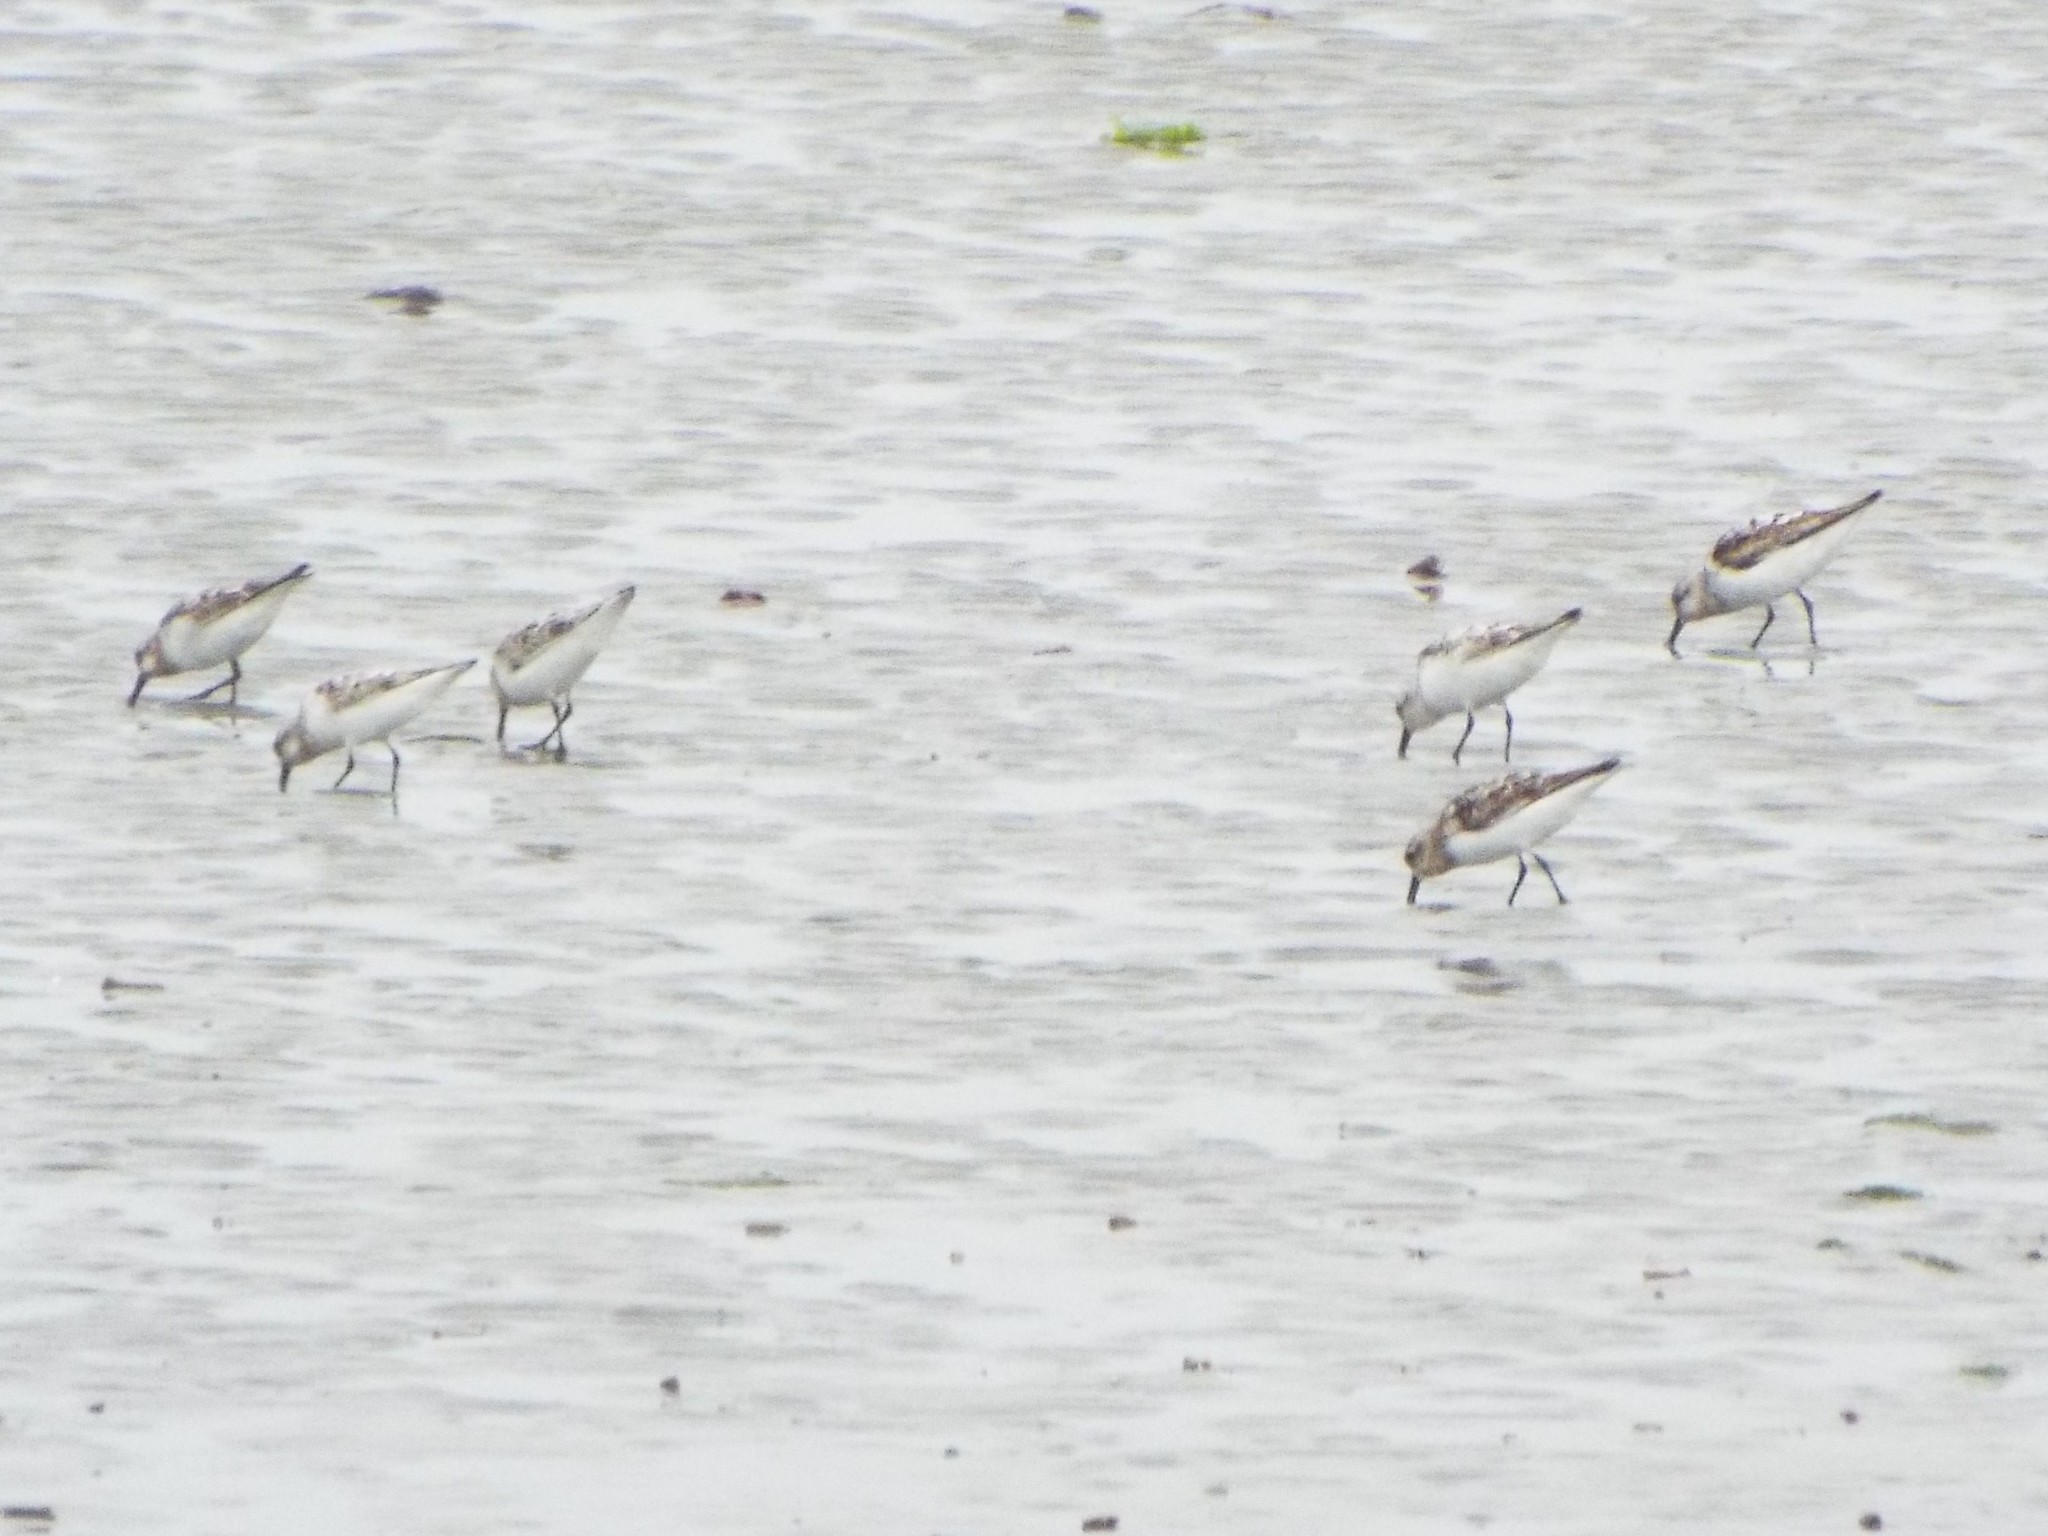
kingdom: Animalia
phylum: Chordata
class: Aves
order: Charadriiformes
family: Scolopacidae
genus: Calidris
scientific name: Calidris alba
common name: Sanderling
